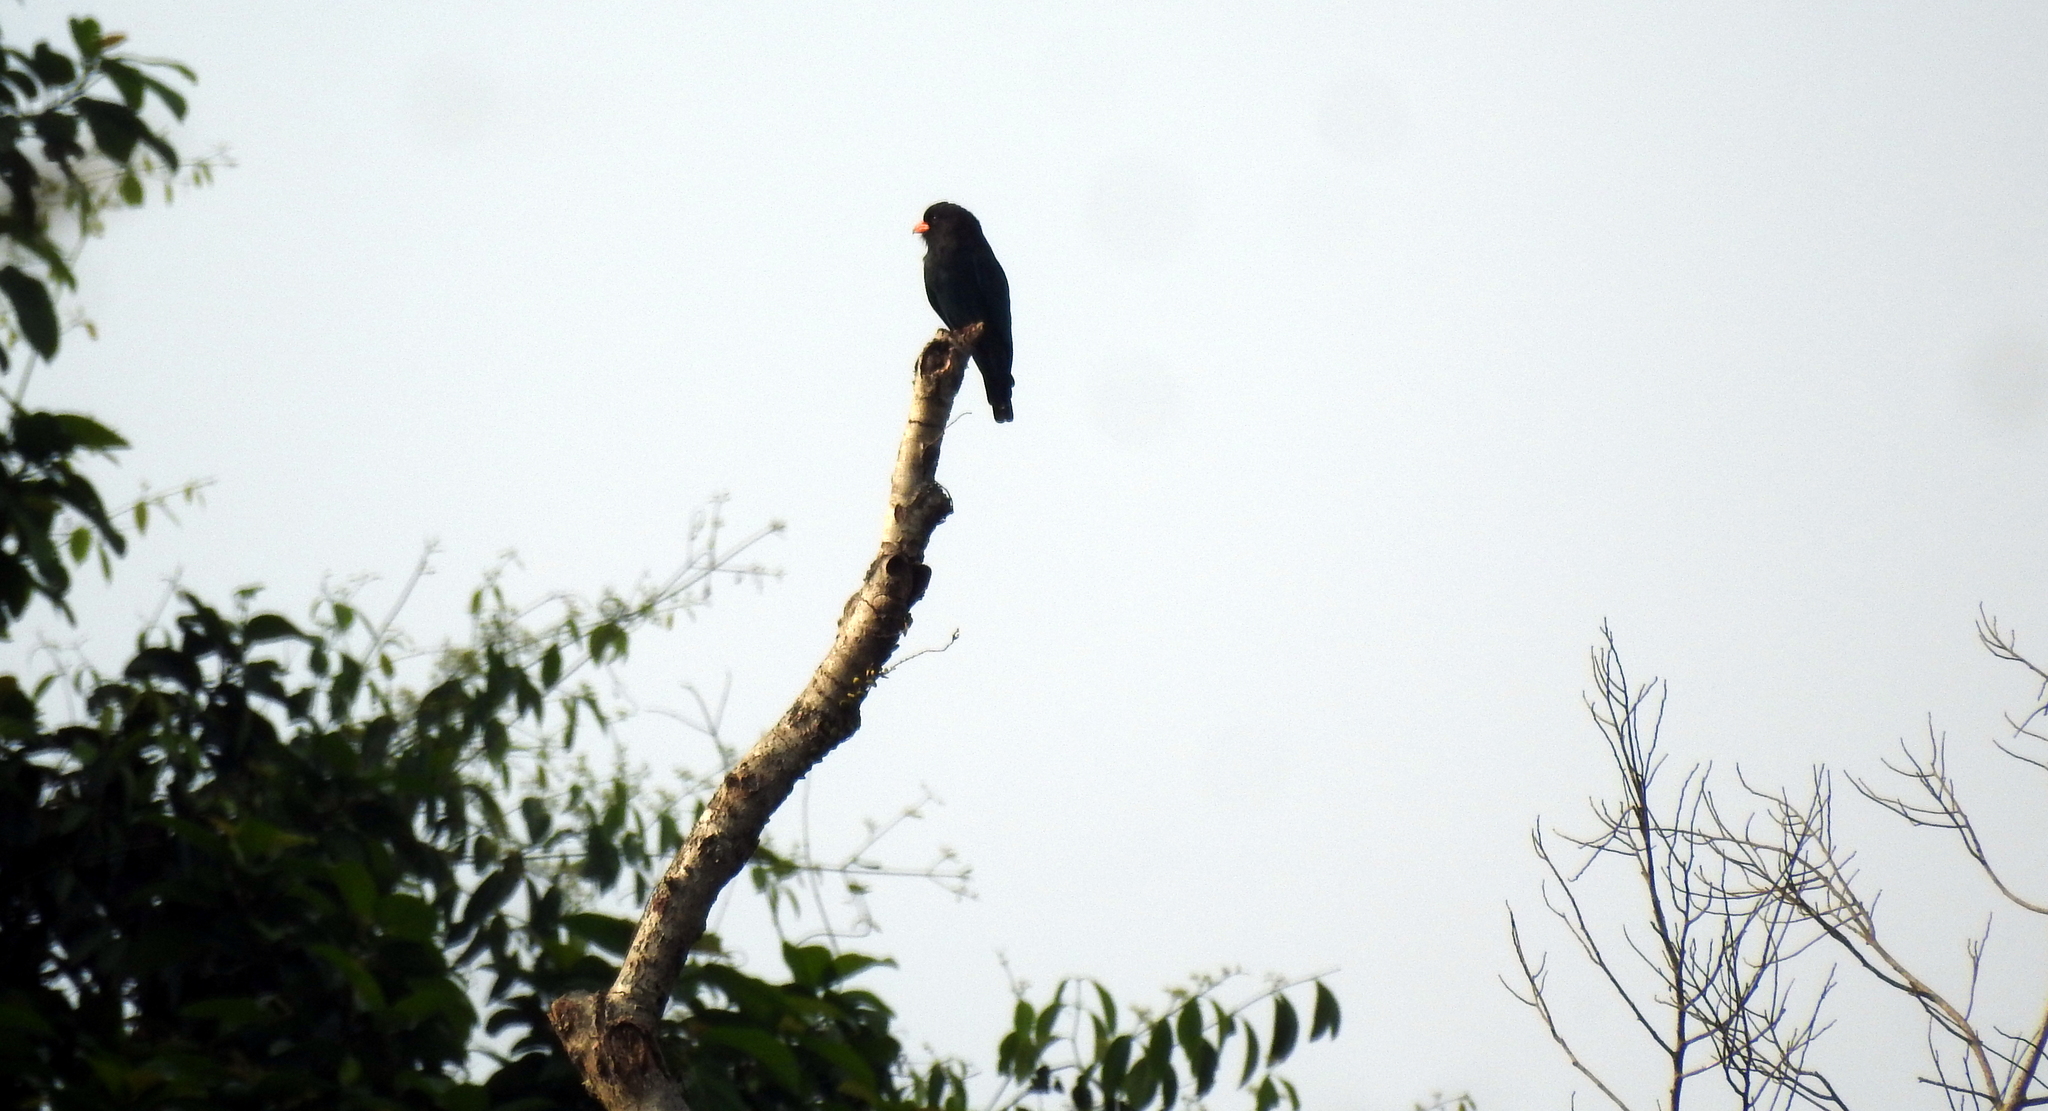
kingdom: Animalia
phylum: Chordata
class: Aves
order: Coraciiformes
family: Coraciidae
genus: Eurystomus
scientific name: Eurystomus orientalis
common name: Oriental dollarbird
